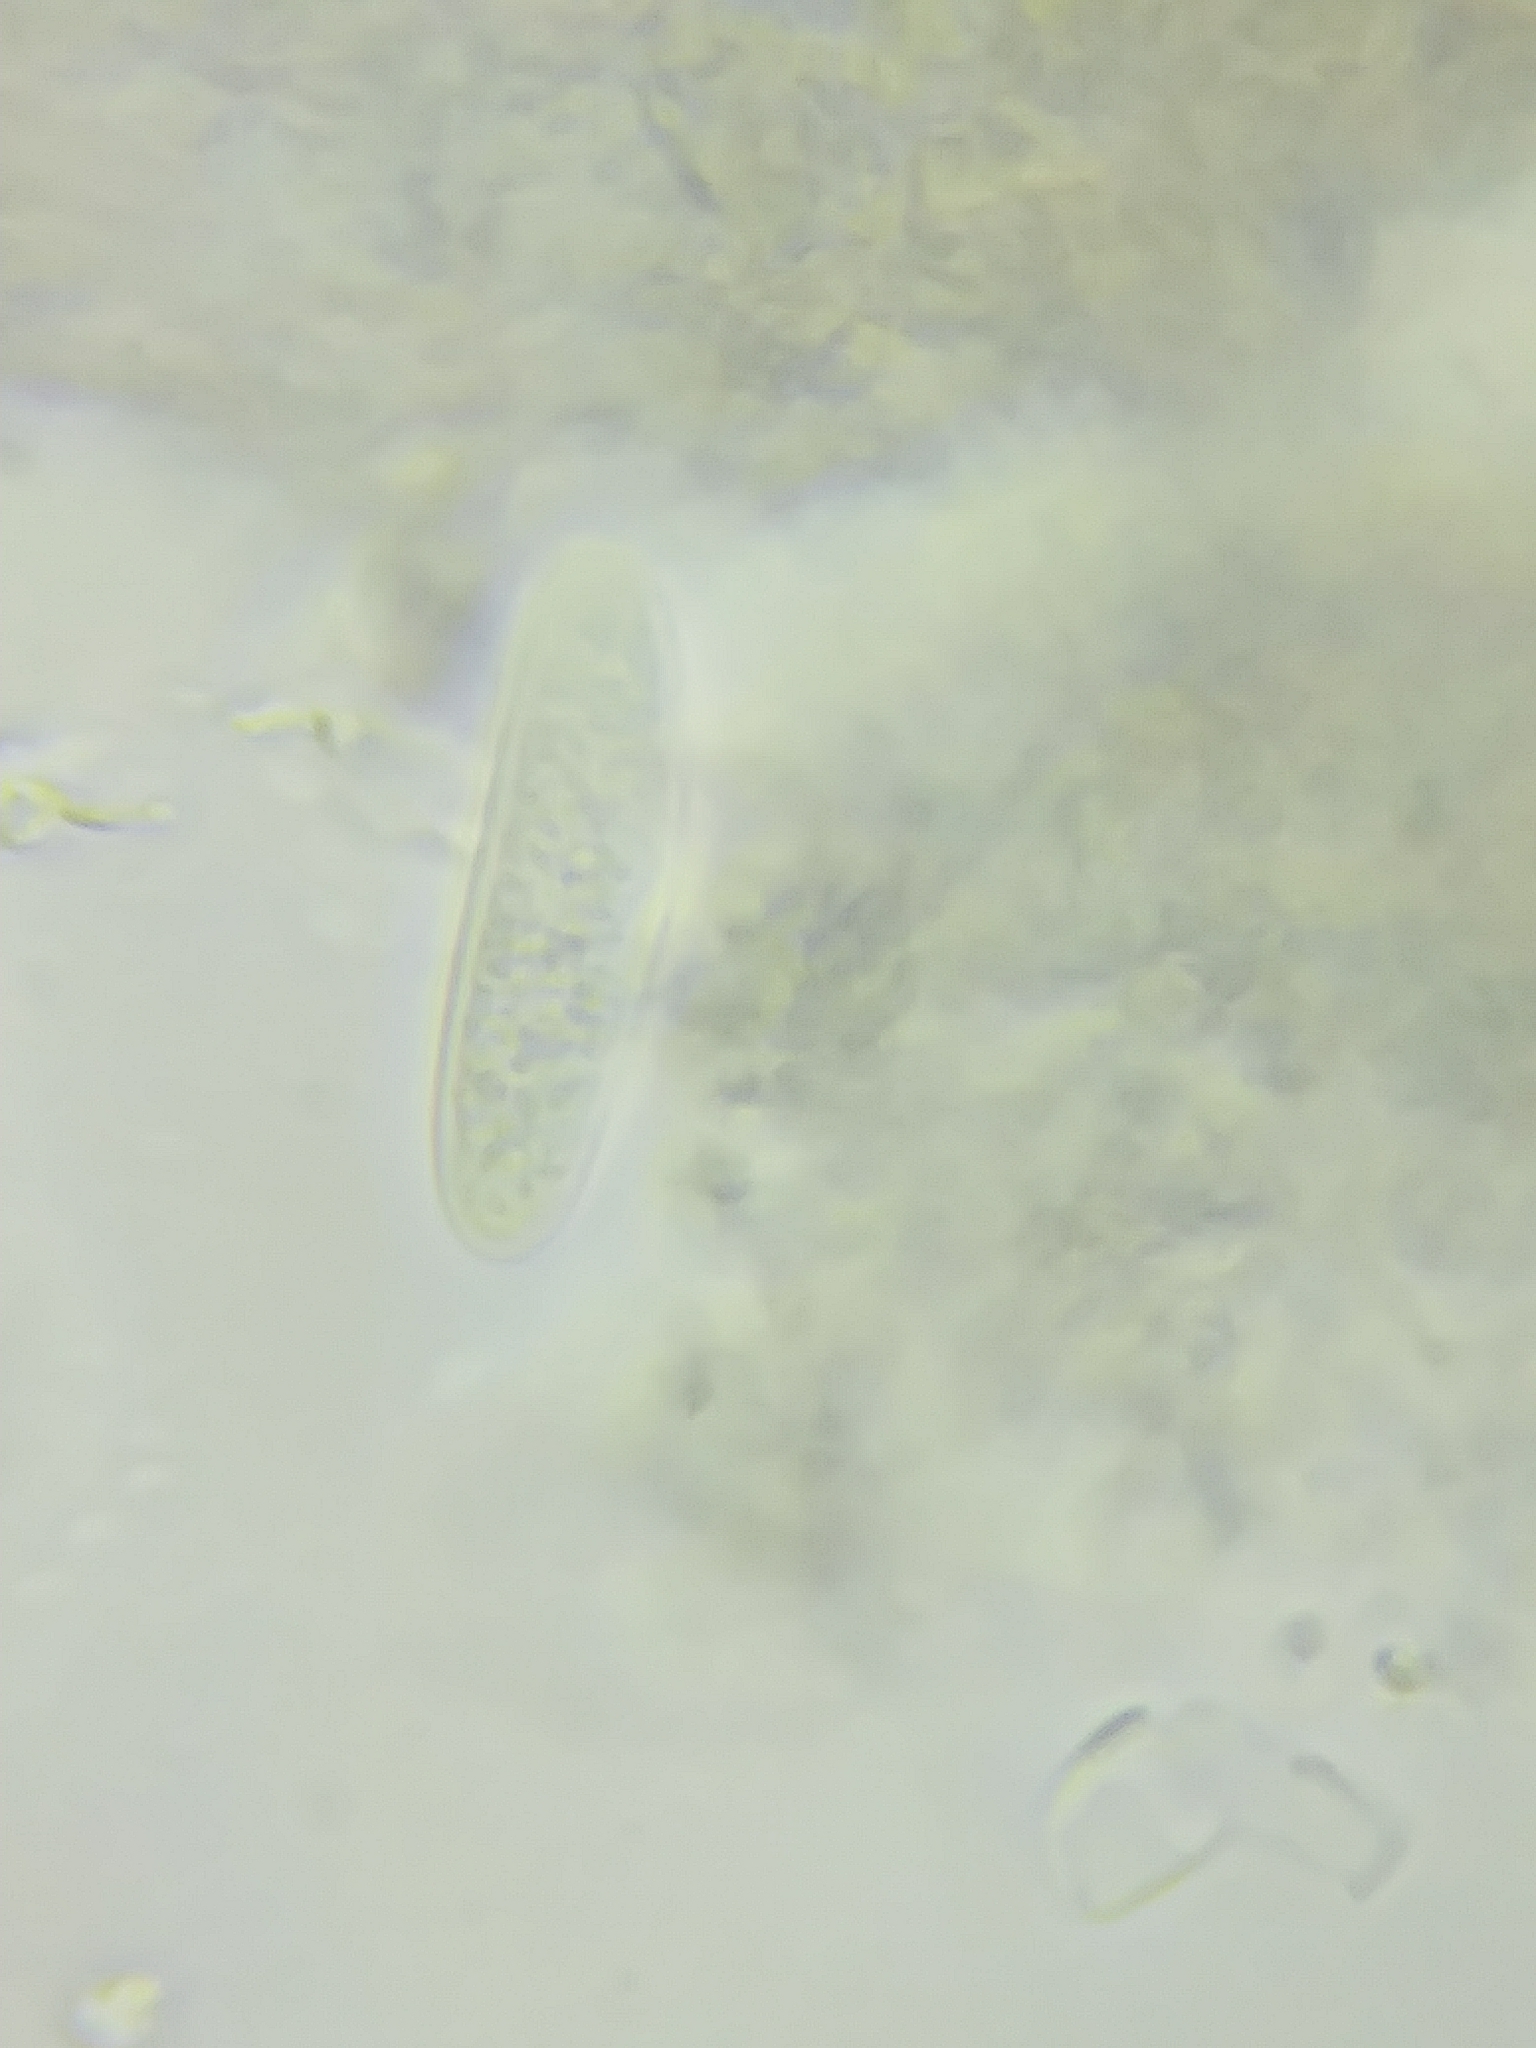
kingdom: Fungi
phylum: Ascomycota
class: Leotiomycetes
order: Chaetomellales
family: Marthamycetaceae
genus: Propolis
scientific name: Propolis farinosa
